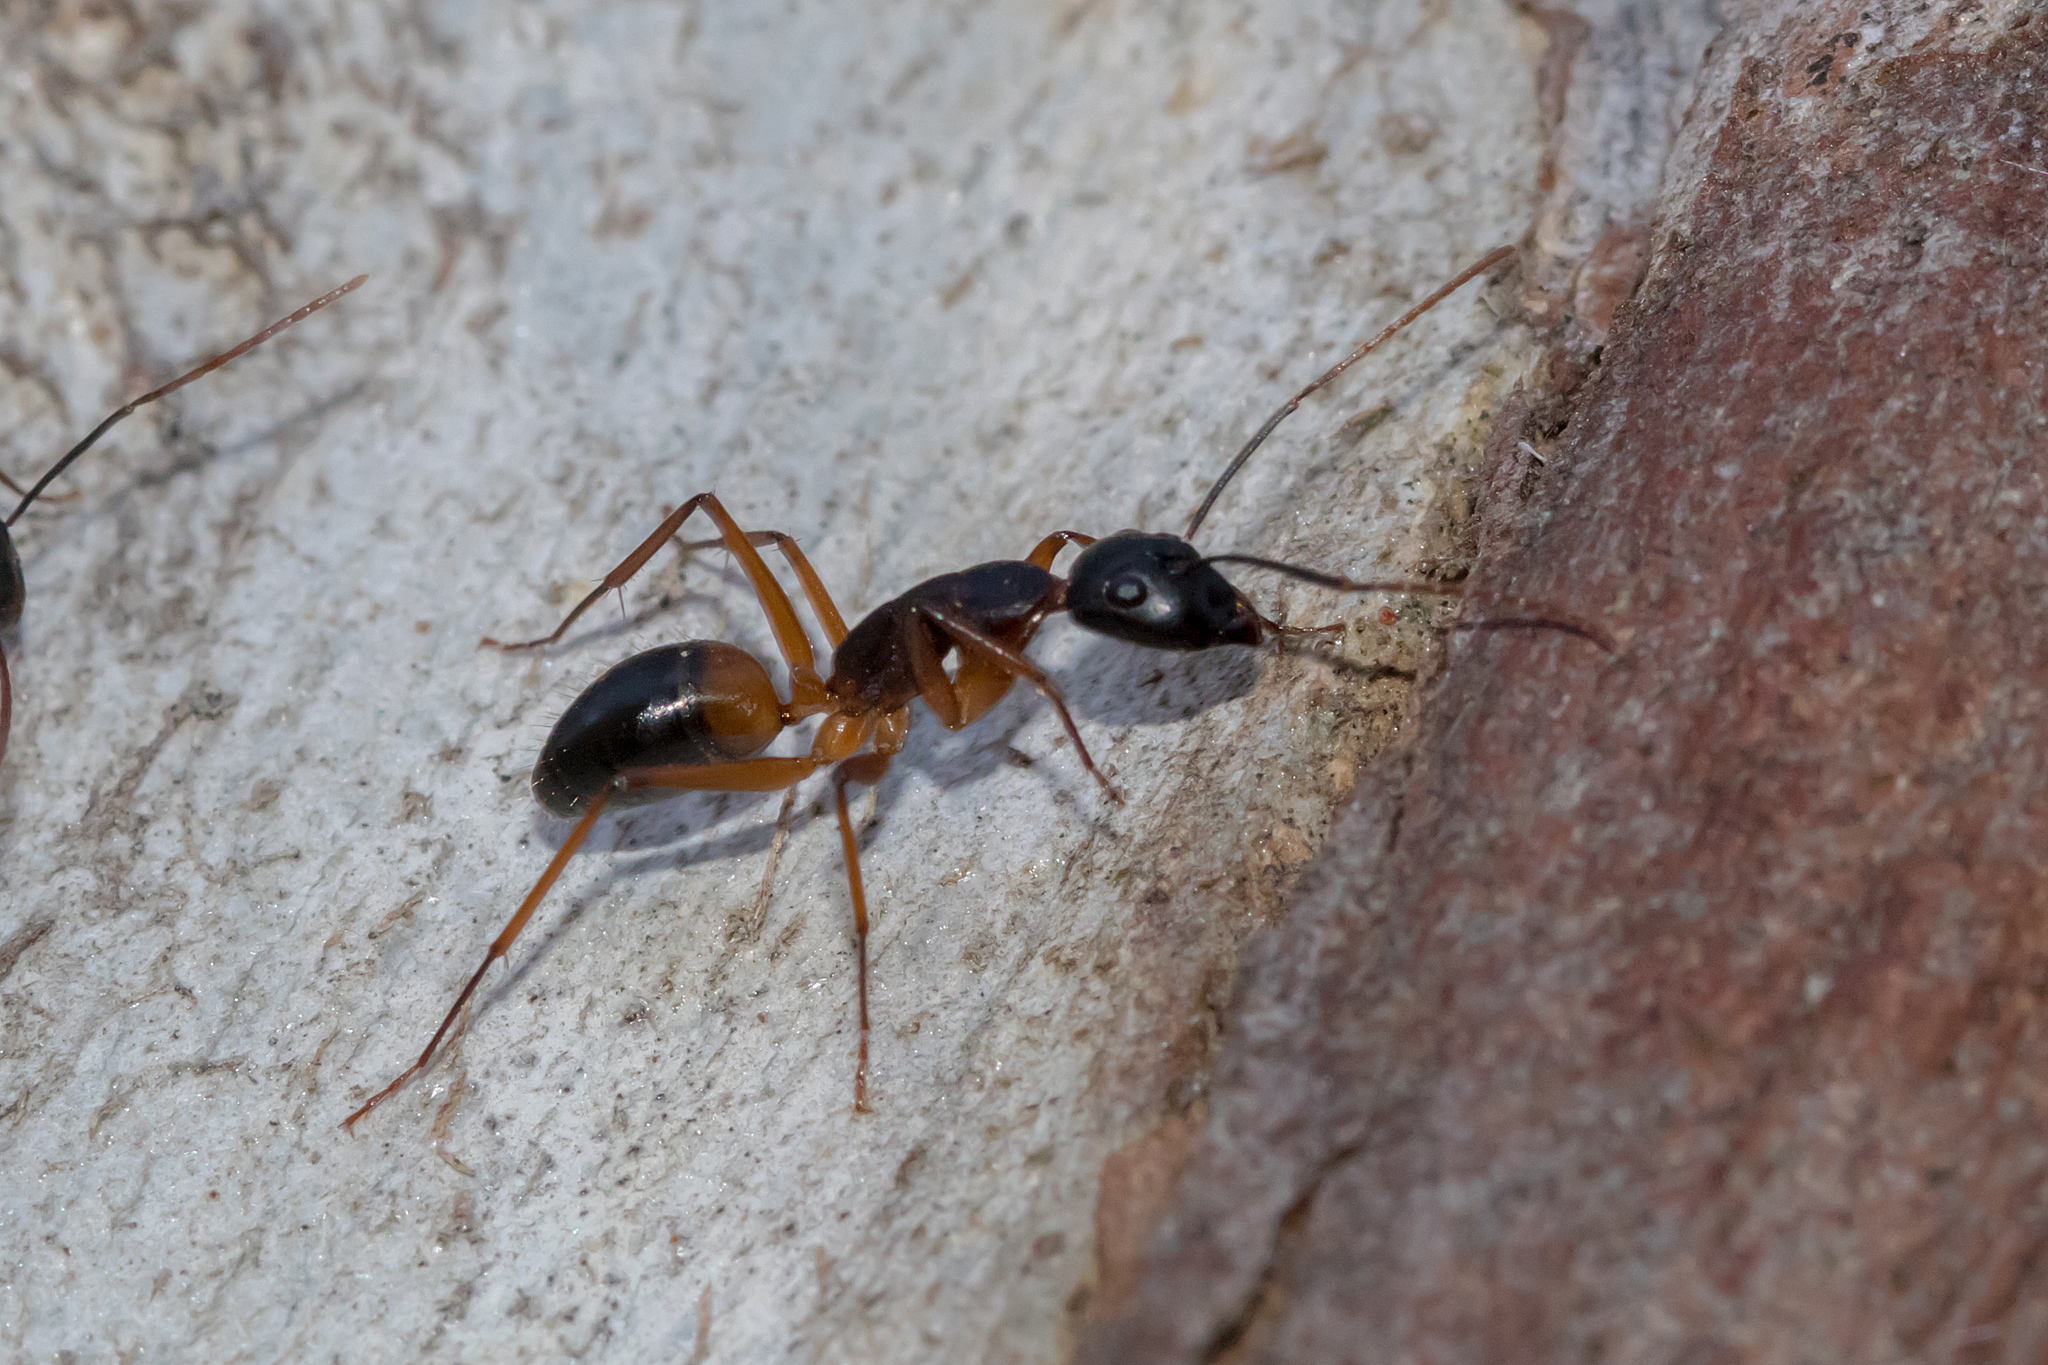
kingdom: Animalia
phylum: Arthropoda
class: Insecta
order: Hymenoptera
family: Formicidae
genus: Camponotus
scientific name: Camponotus consobrinus
